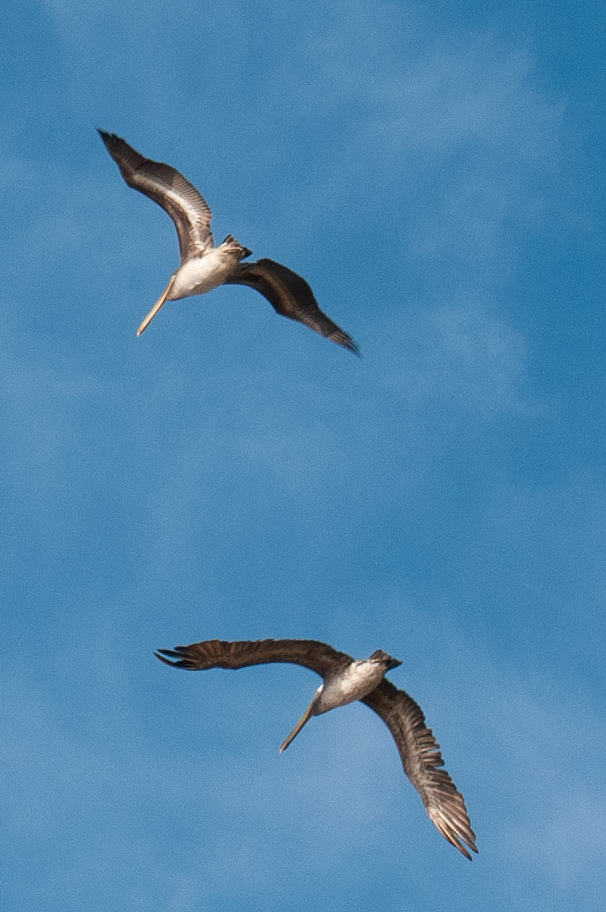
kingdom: Animalia
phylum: Chordata
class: Aves
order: Pelecaniformes
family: Pelecanidae
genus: Pelecanus
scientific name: Pelecanus occidentalis
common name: Brown pelican
